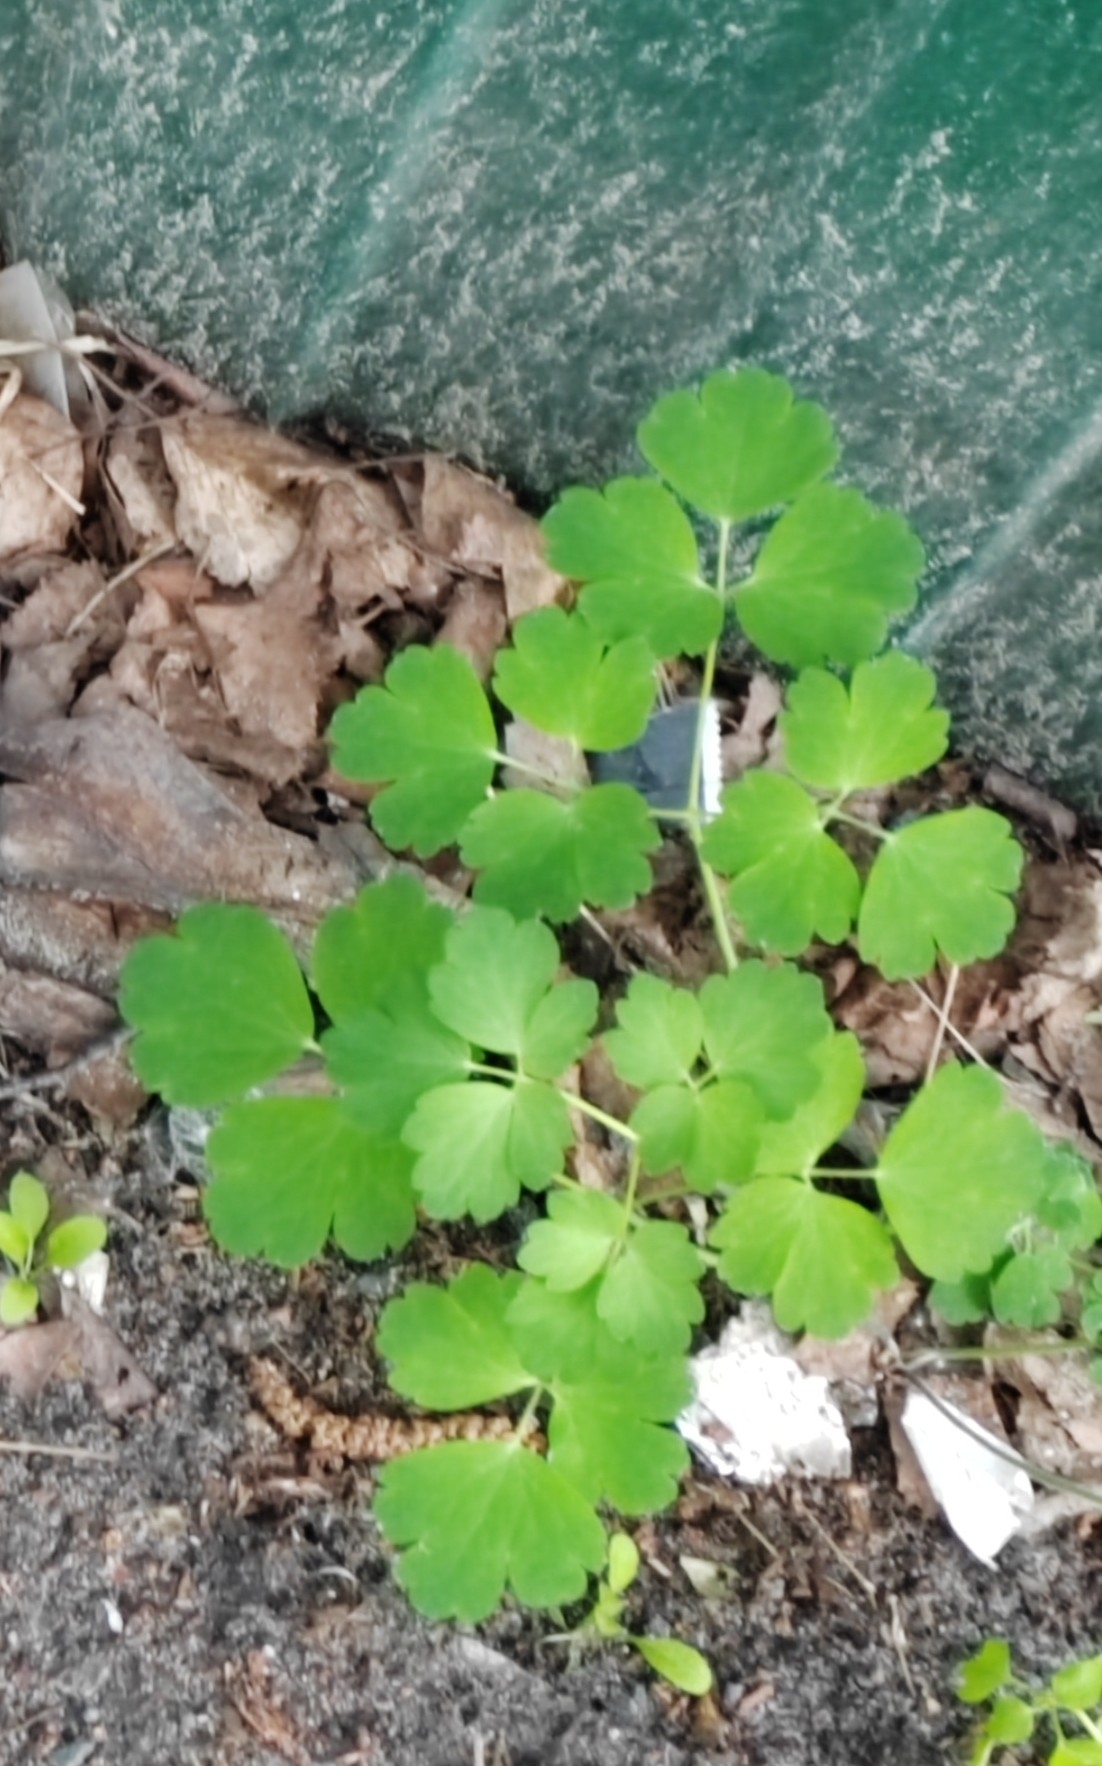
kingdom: Plantae
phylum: Tracheophyta
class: Magnoliopsida
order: Ranunculales
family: Ranunculaceae
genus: Aquilegia
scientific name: Aquilegia vulgaris
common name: Columbine
